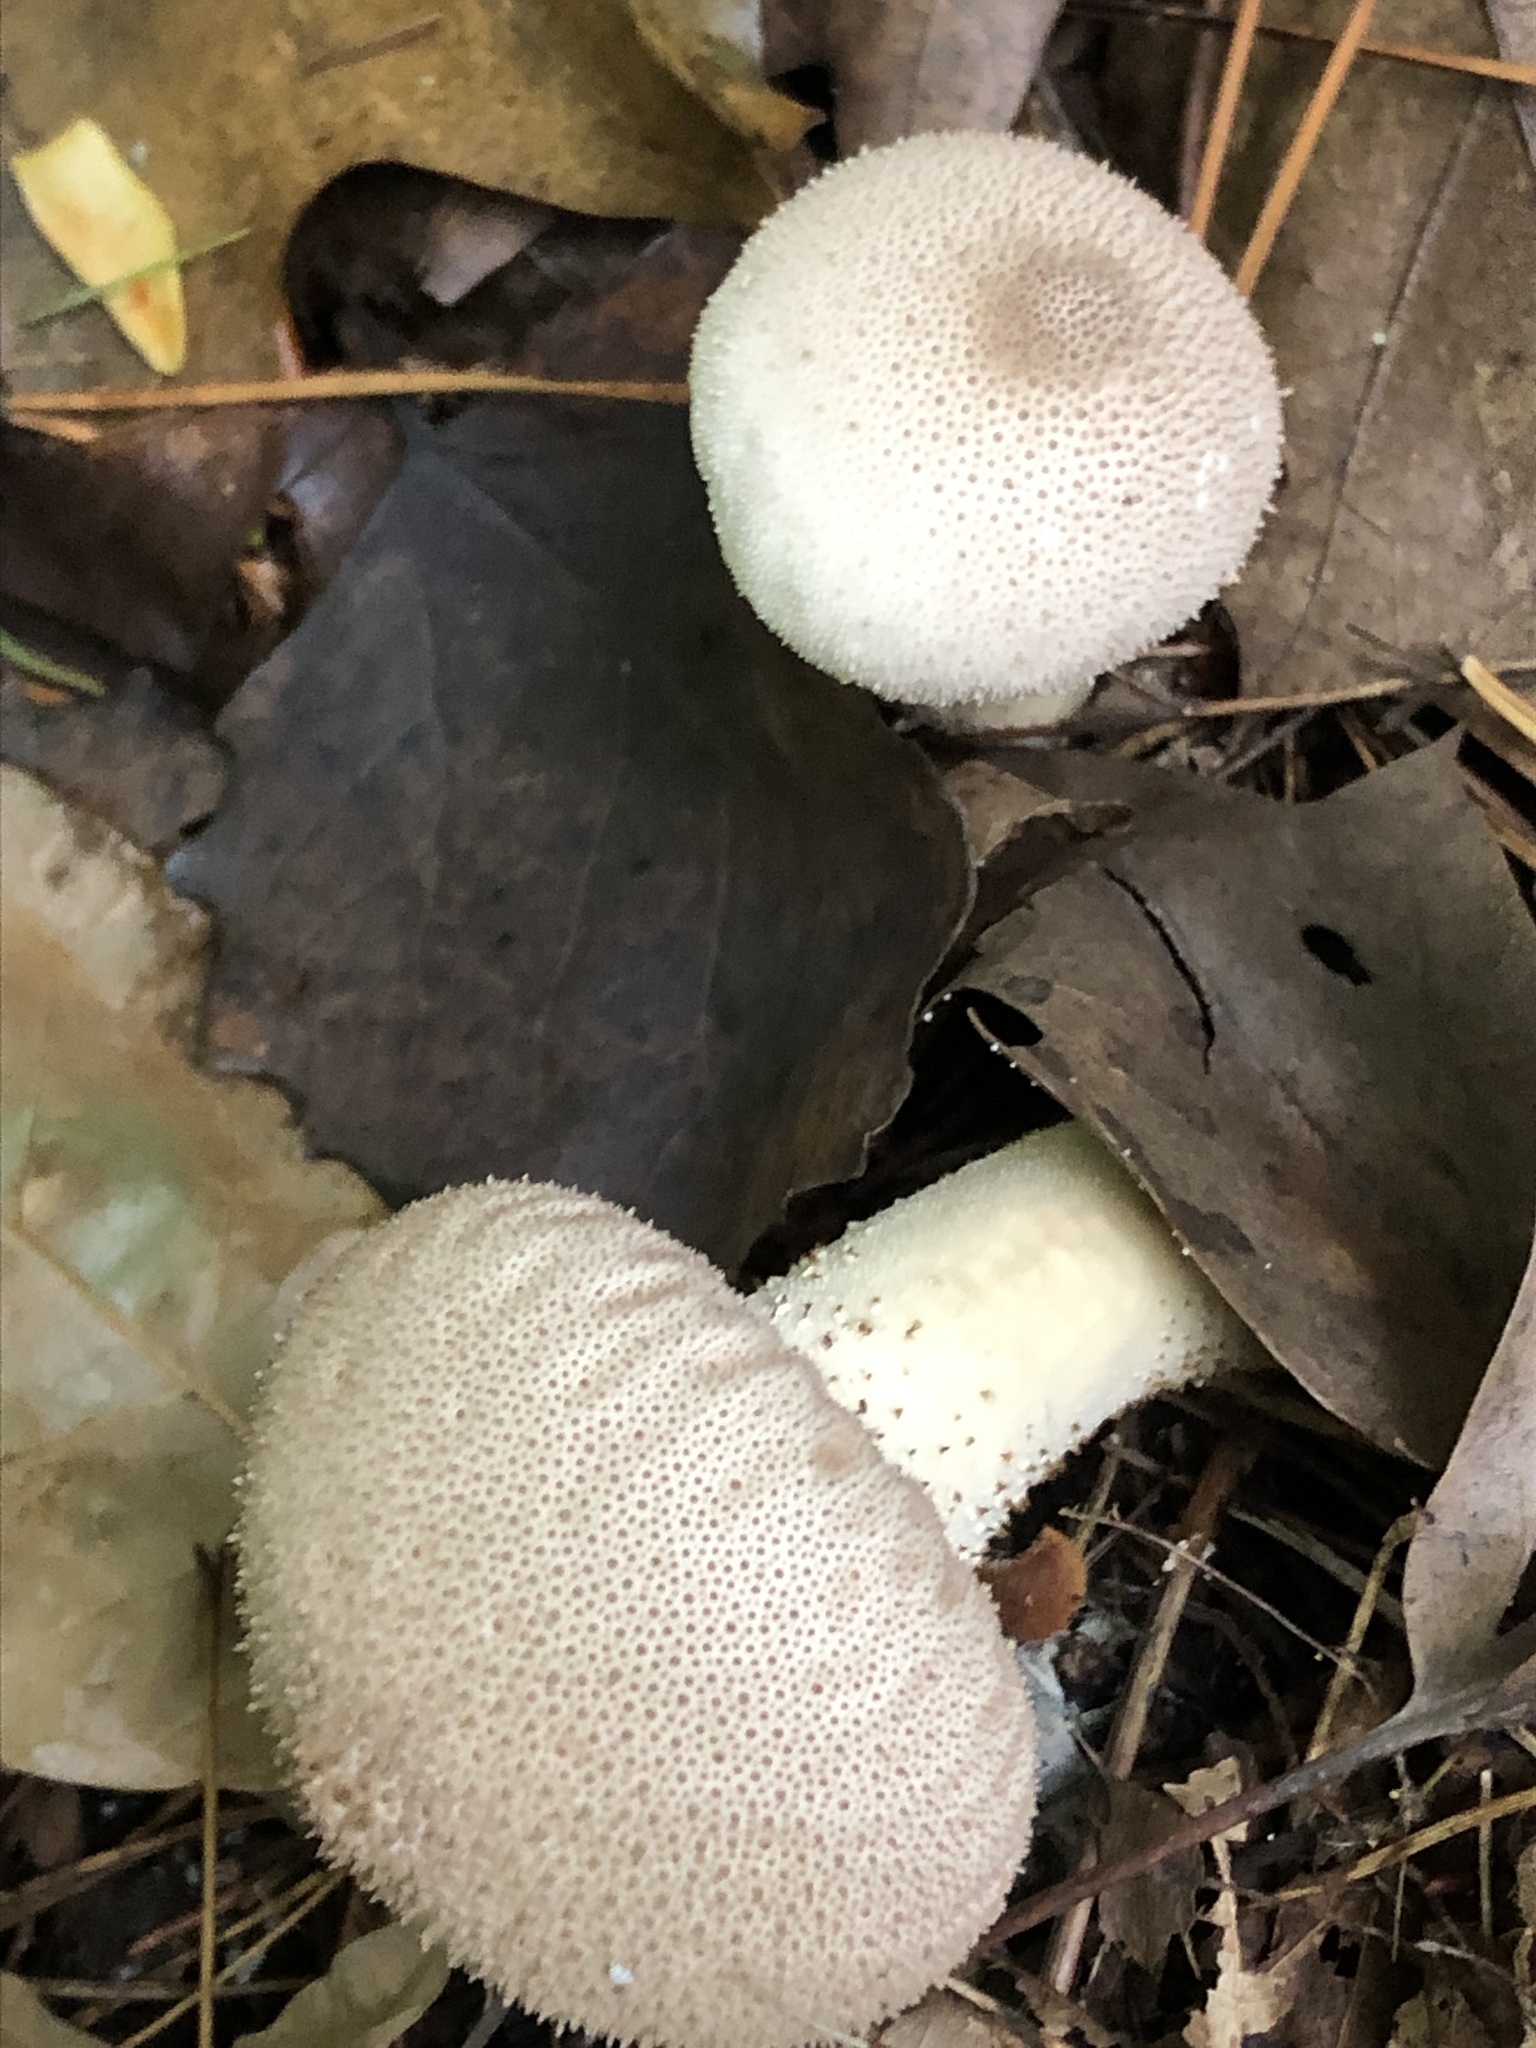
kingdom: Fungi
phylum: Basidiomycota
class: Agaricomycetes
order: Agaricales
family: Lycoperdaceae
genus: Lycoperdon
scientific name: Lycoperdon perlatum
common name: Common puffball
